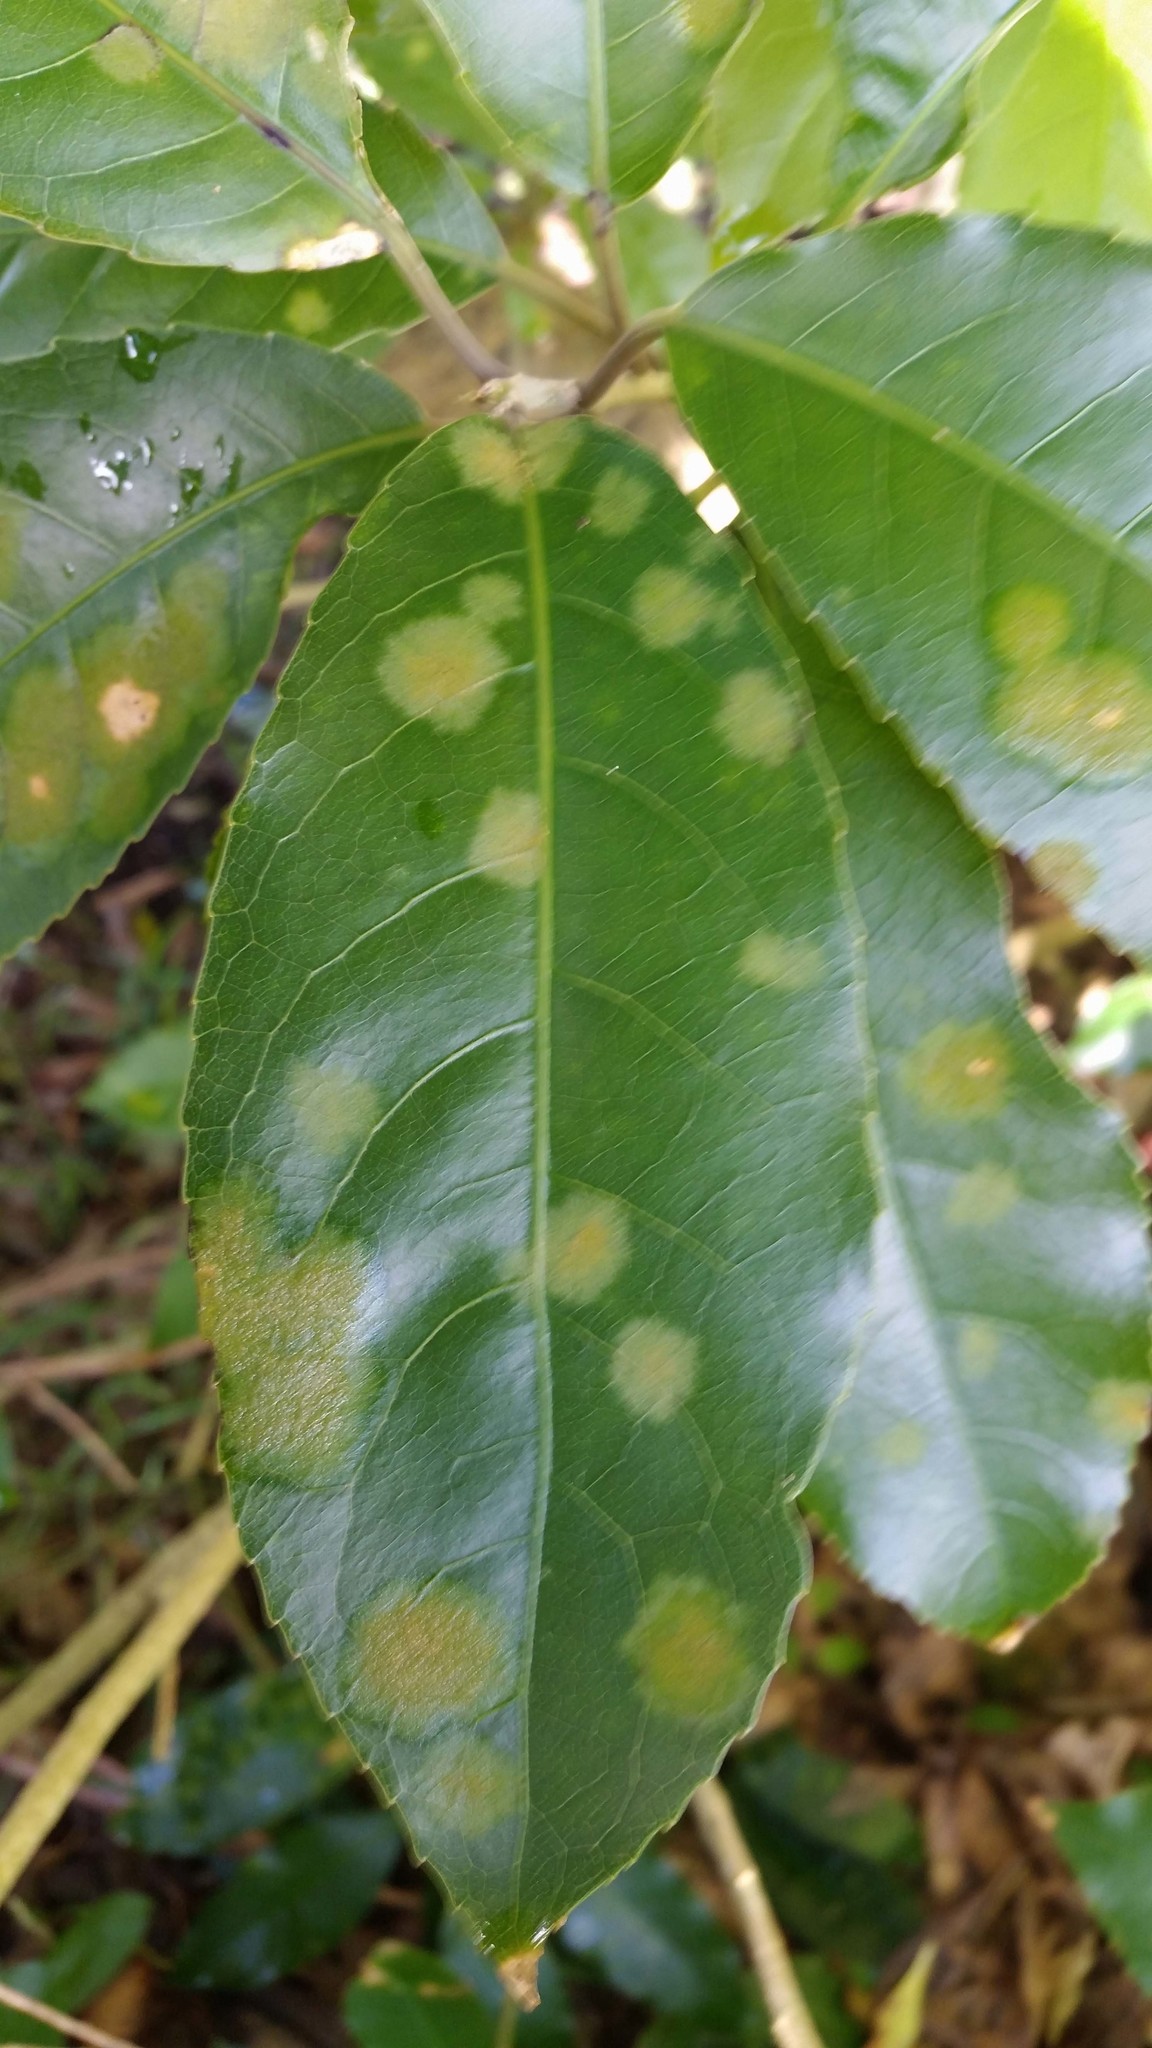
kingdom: Plantae
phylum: Chlorophyta
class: Ulvophyceae
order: Trentepohliales
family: Trentepohliaceae
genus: Cephaleuros
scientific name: Cephaleuros
